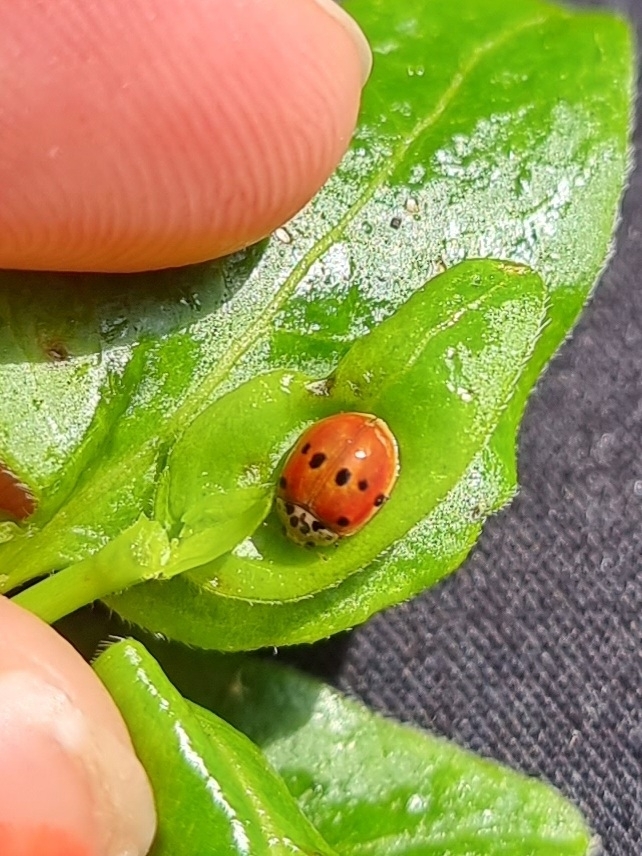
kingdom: Animalia
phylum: Arthropoda
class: Insecta
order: Coleoptera
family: Coccinellidae
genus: Adalia
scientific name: Adalia decempunctata
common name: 10-spot ladybird
